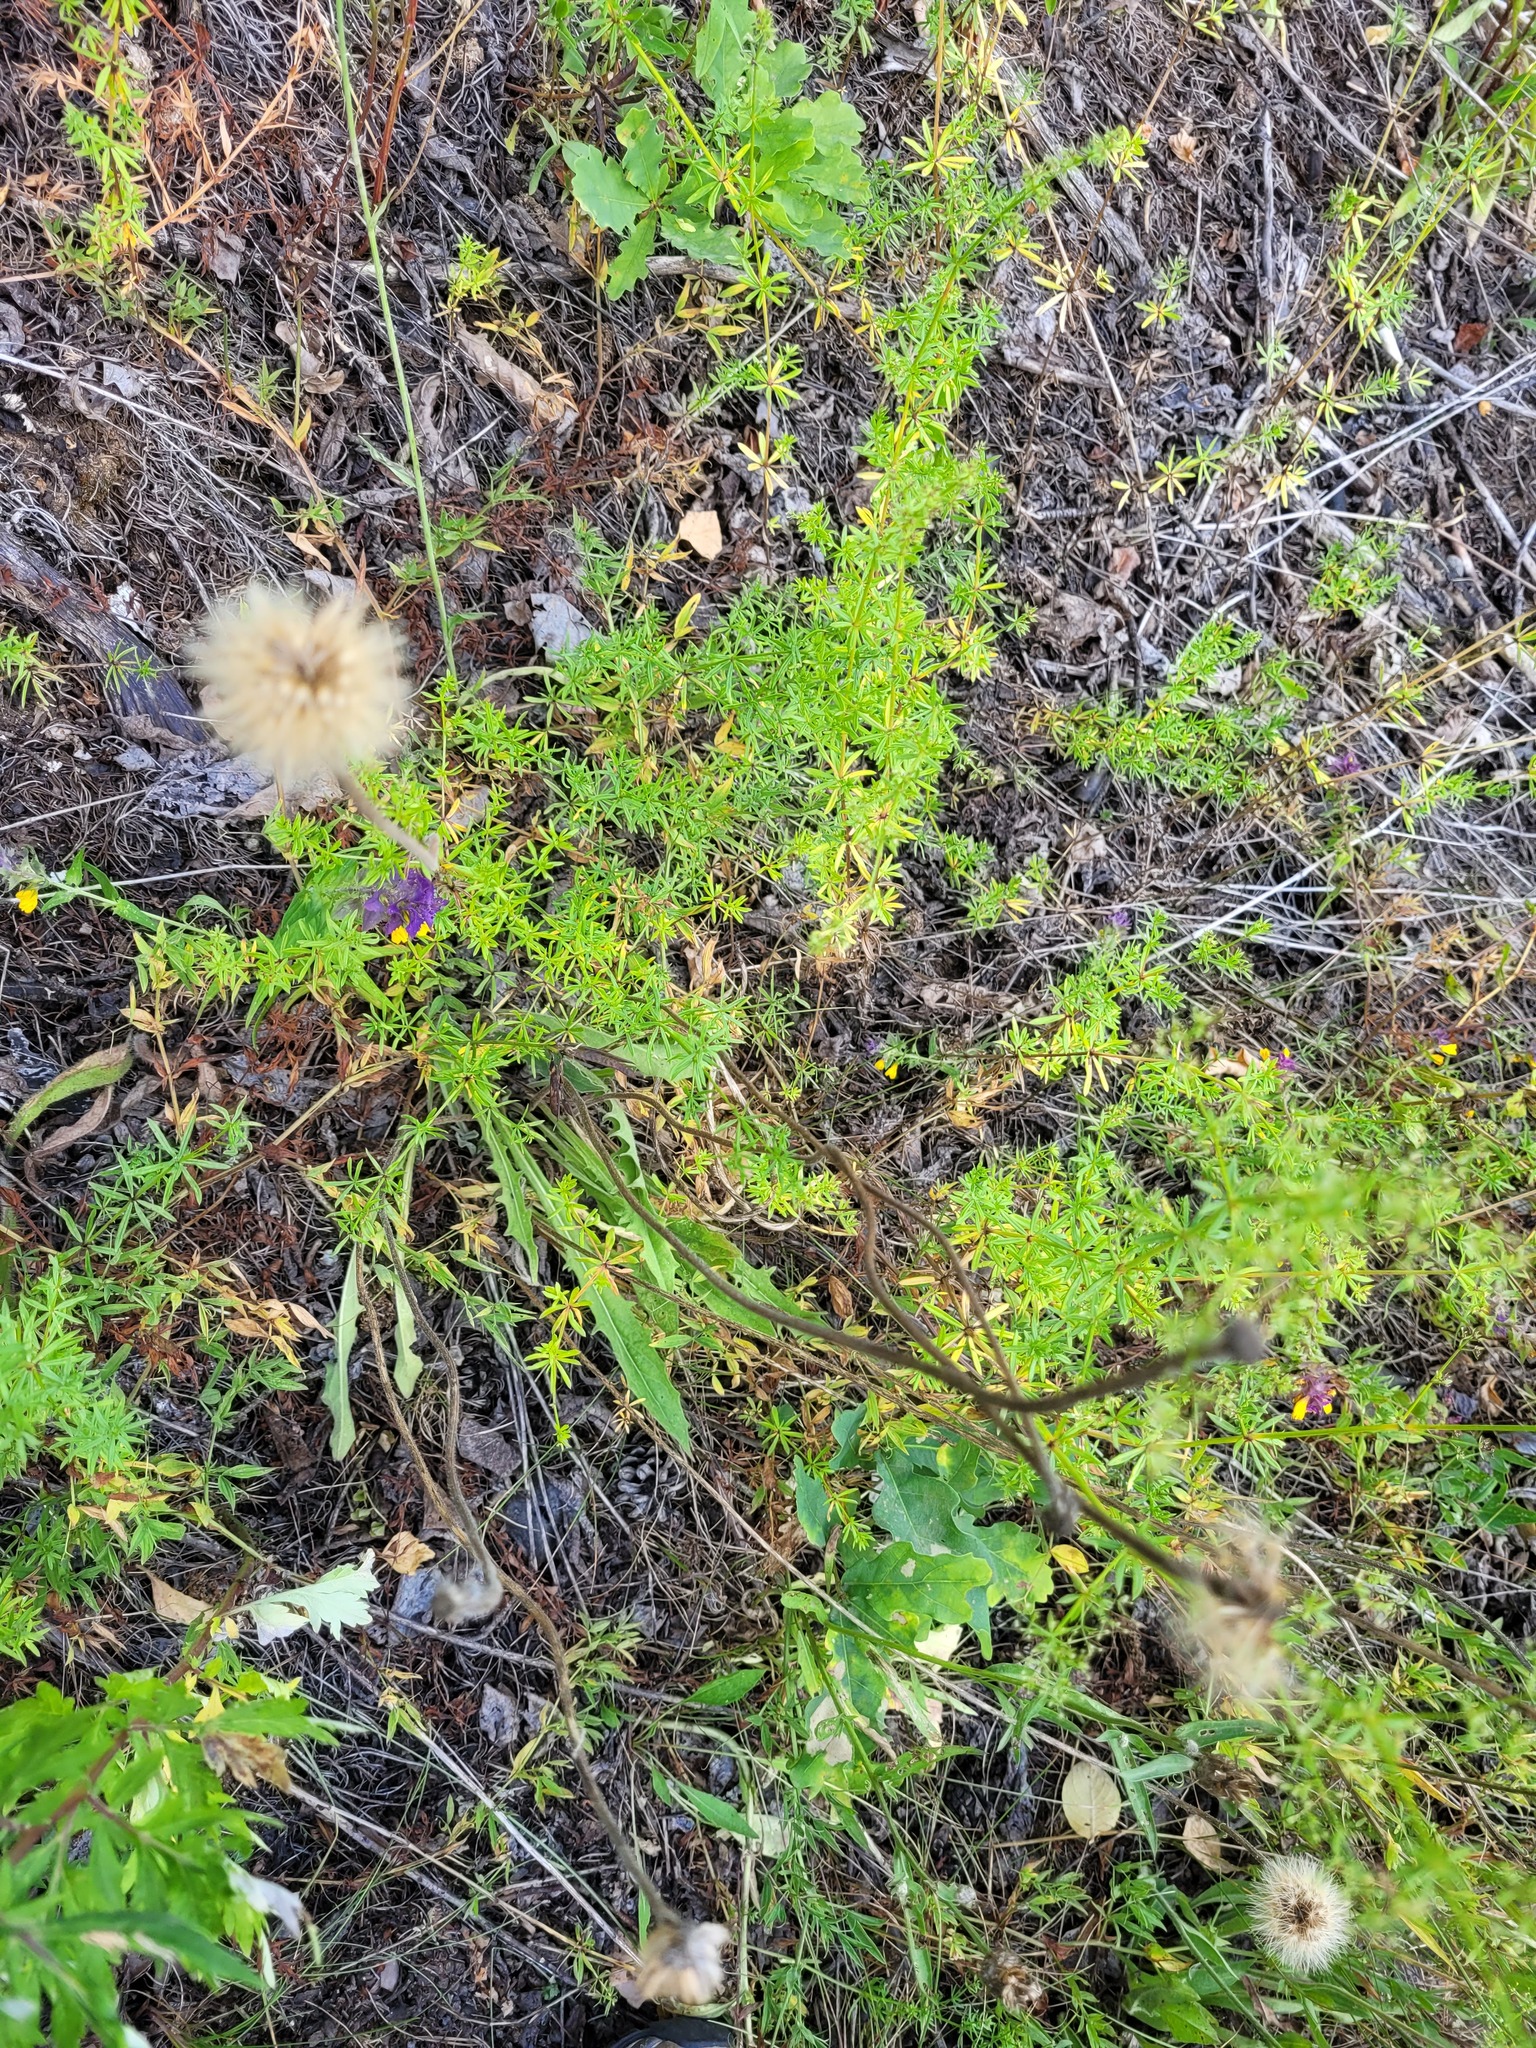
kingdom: Plantae
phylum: Tracheophyta
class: Magnoliopsida
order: Asterales
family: Asteraceae
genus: Leontodon
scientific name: Leontodon hispidus
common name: Rough hawkbit
